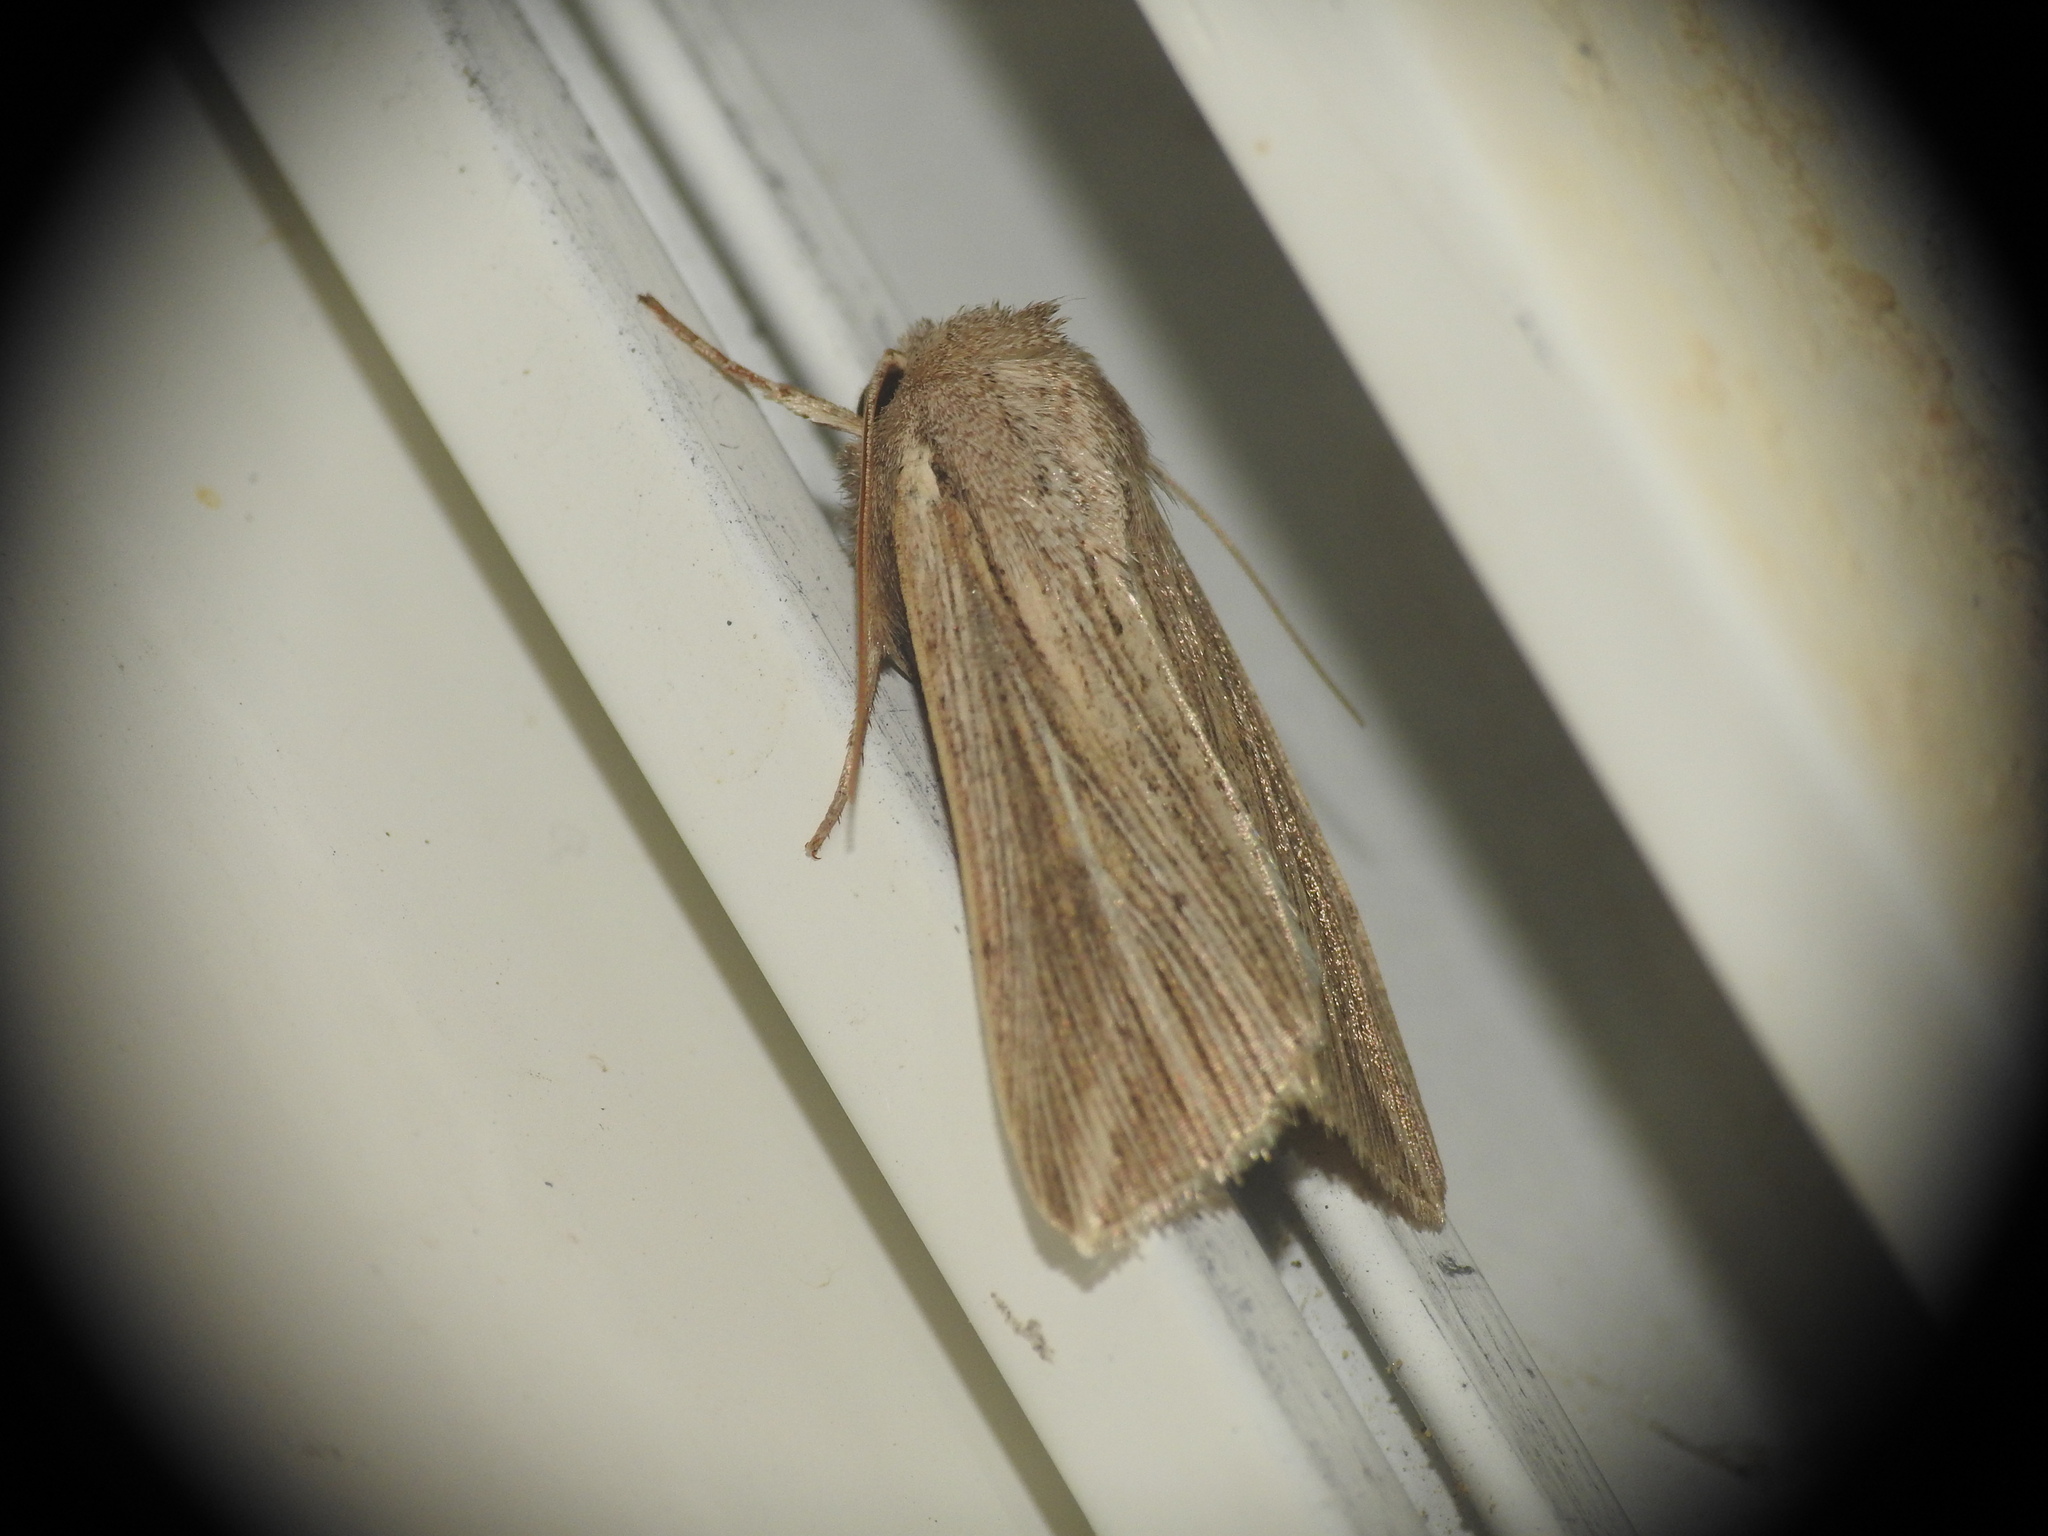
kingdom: Animalia
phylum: Arthropoda
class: Insecta
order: Lepidoptera
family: Noctuidae
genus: Mythimna
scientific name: Mythimna riparia
